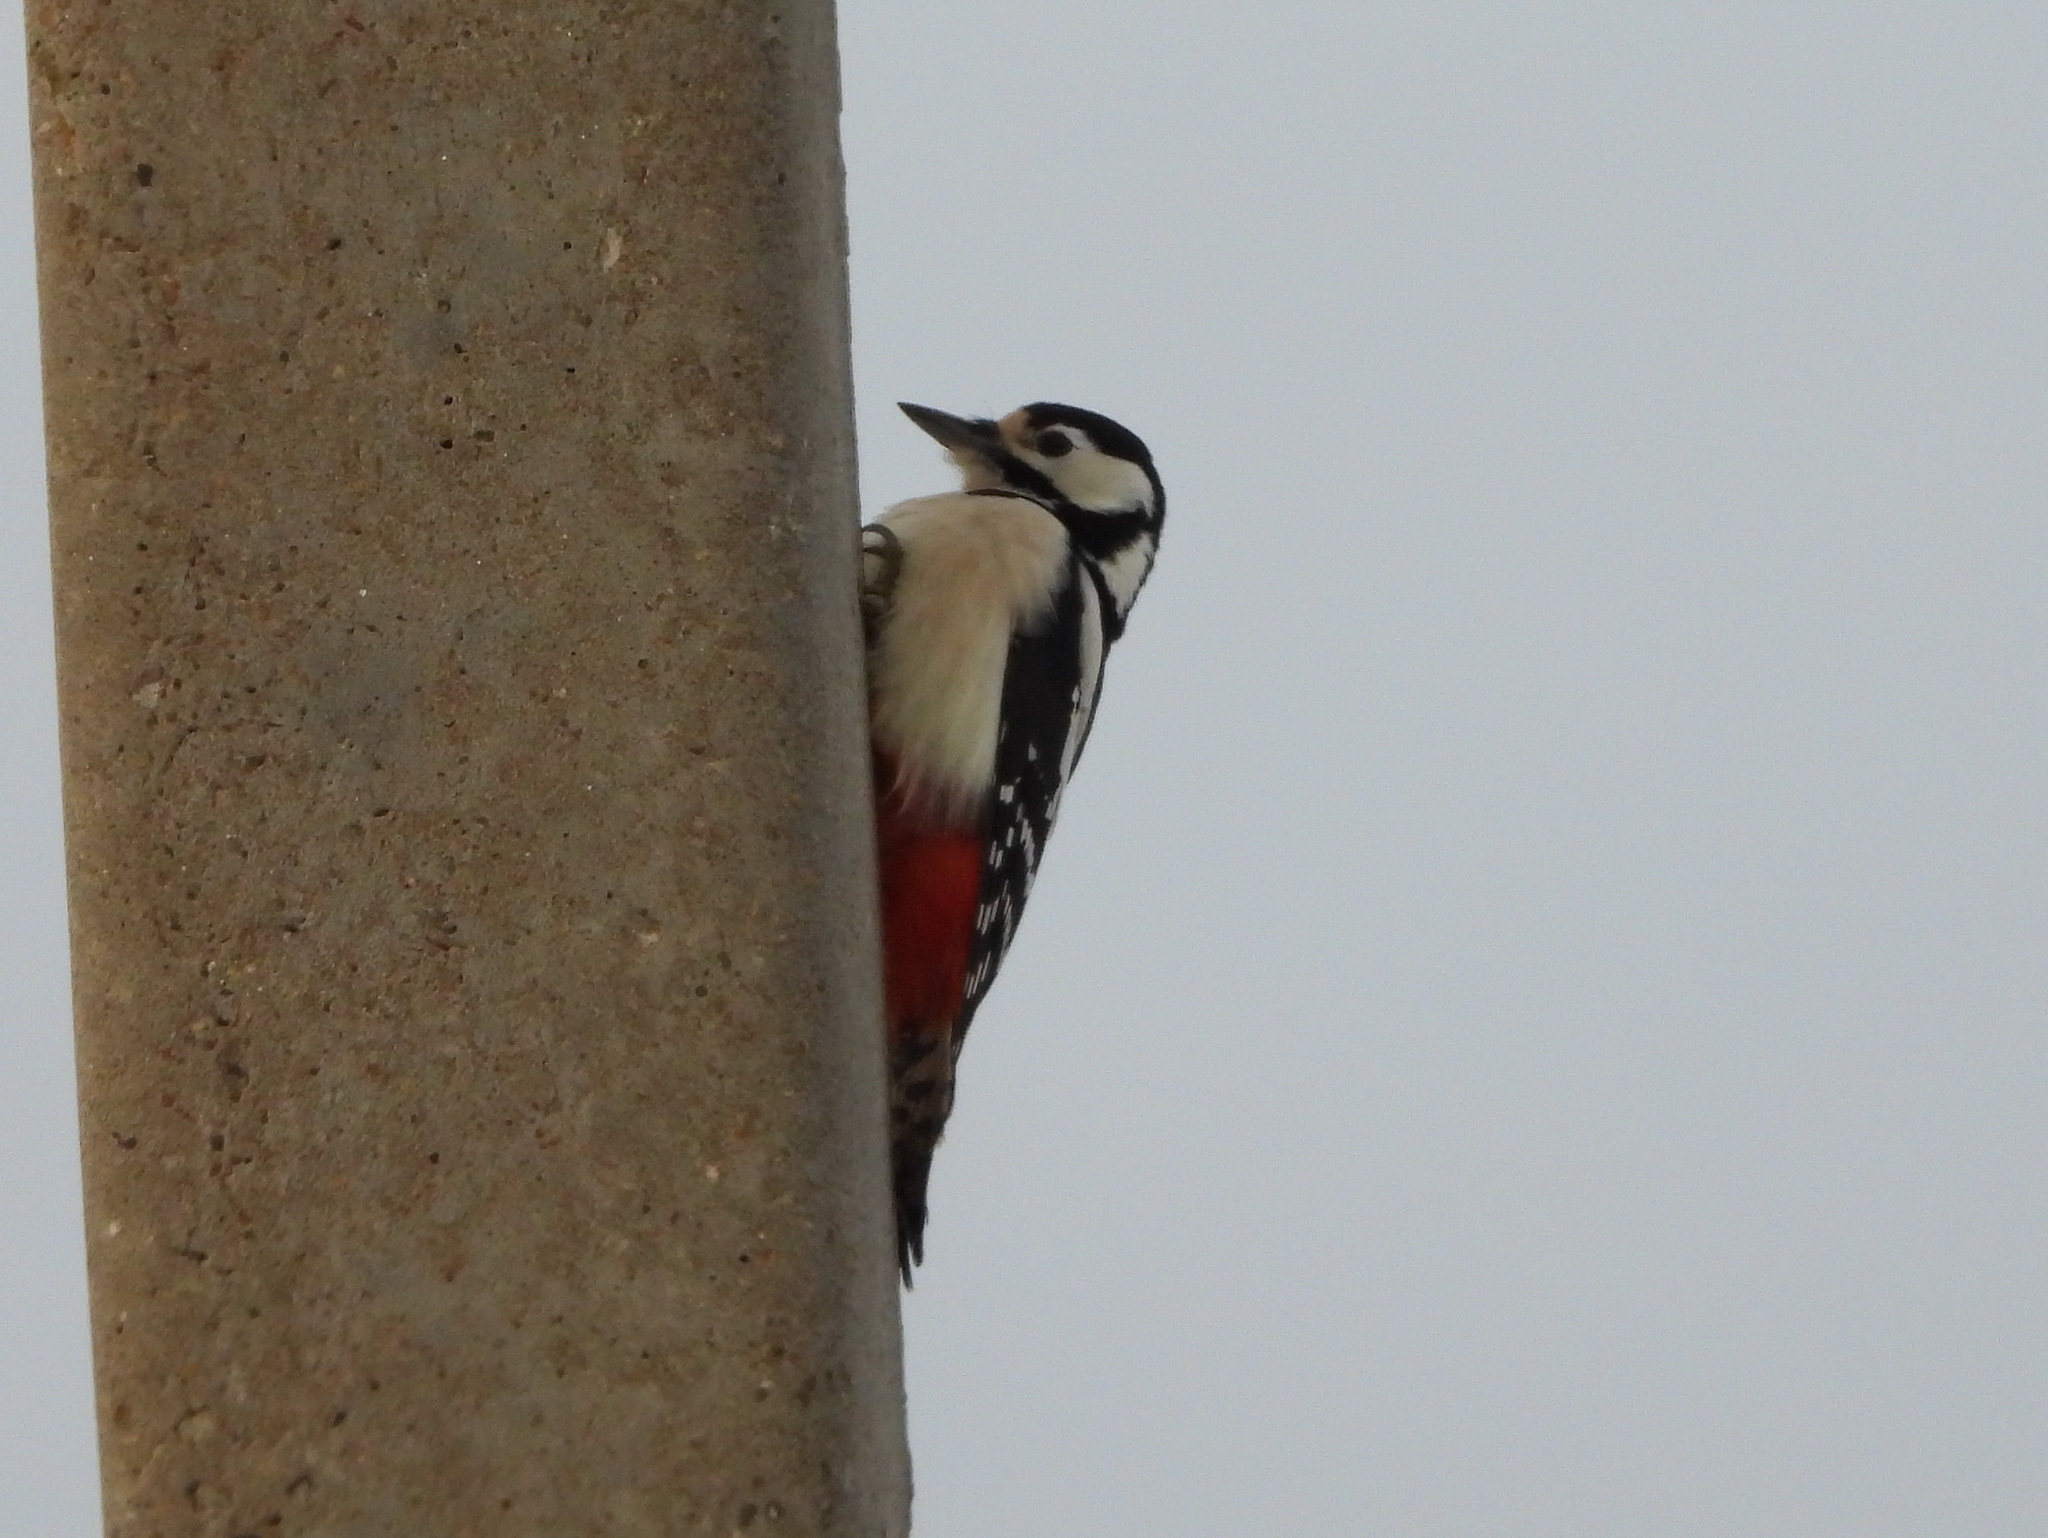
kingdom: Animalia
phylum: Chordata
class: Aves
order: Piciformes
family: Picidae
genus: Dendrocopos
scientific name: Dendrocopos major
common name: Great spotted woodpecker
